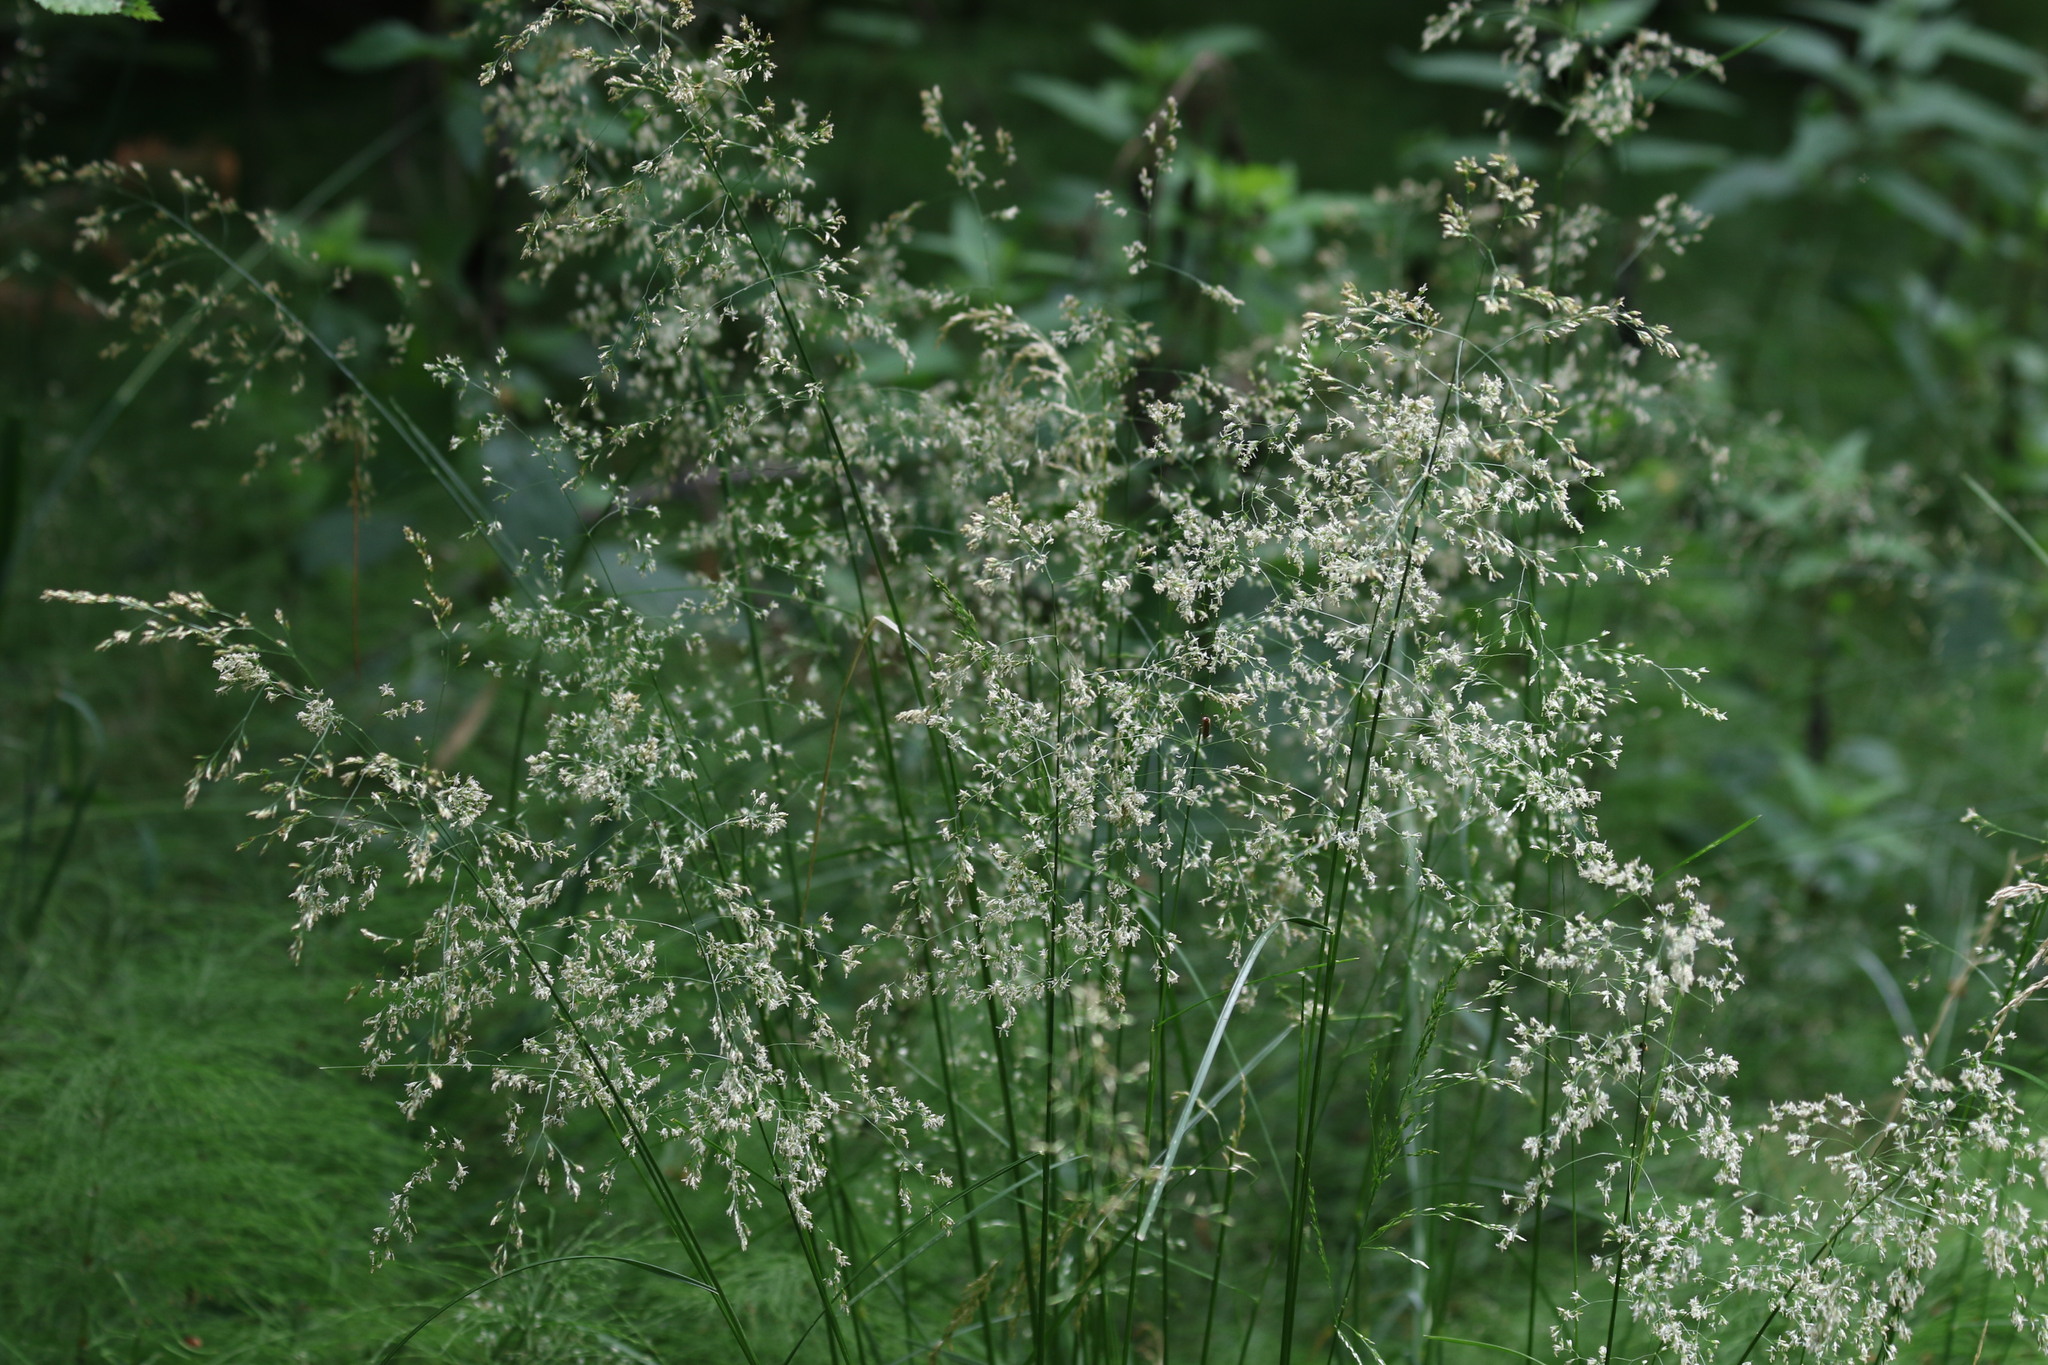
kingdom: Plantae
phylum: Tracheophyta
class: Liliopsida
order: Poales
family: Poaceae
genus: Deschampsia
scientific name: Deschampsia cespitosa
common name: Tufted hair-grass
